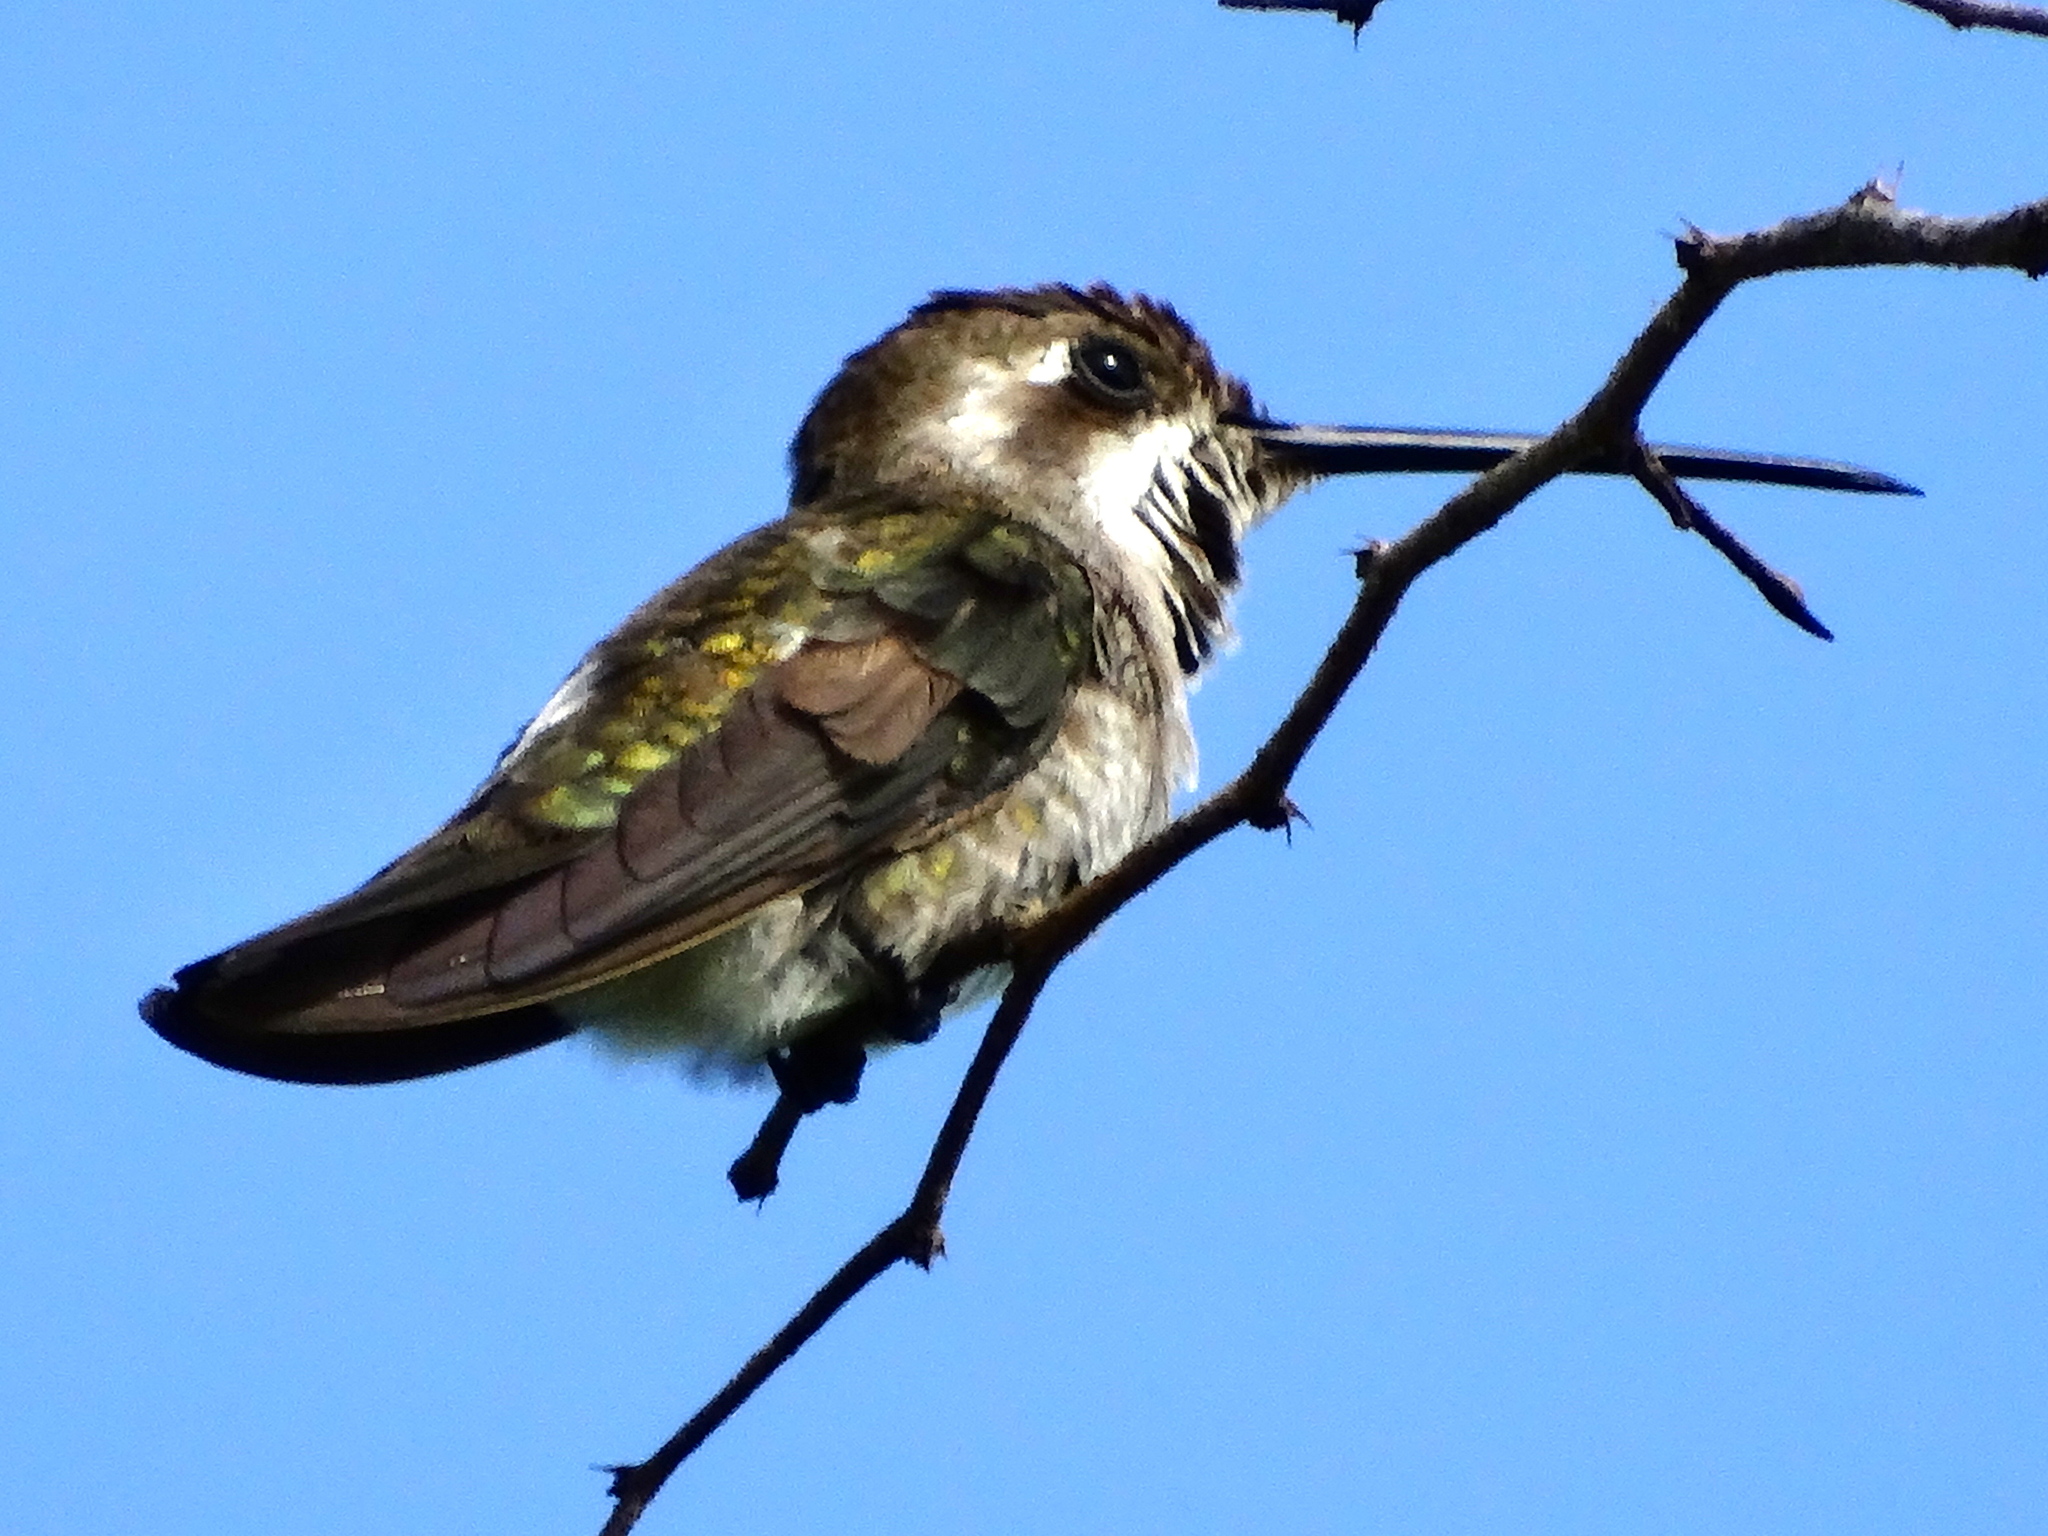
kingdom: Animalia
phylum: Chordata
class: Aves
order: Apodiformes
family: Trochilidae
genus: Heliomaster
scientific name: Heliomaster constantii
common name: Plain-capped starthroat
